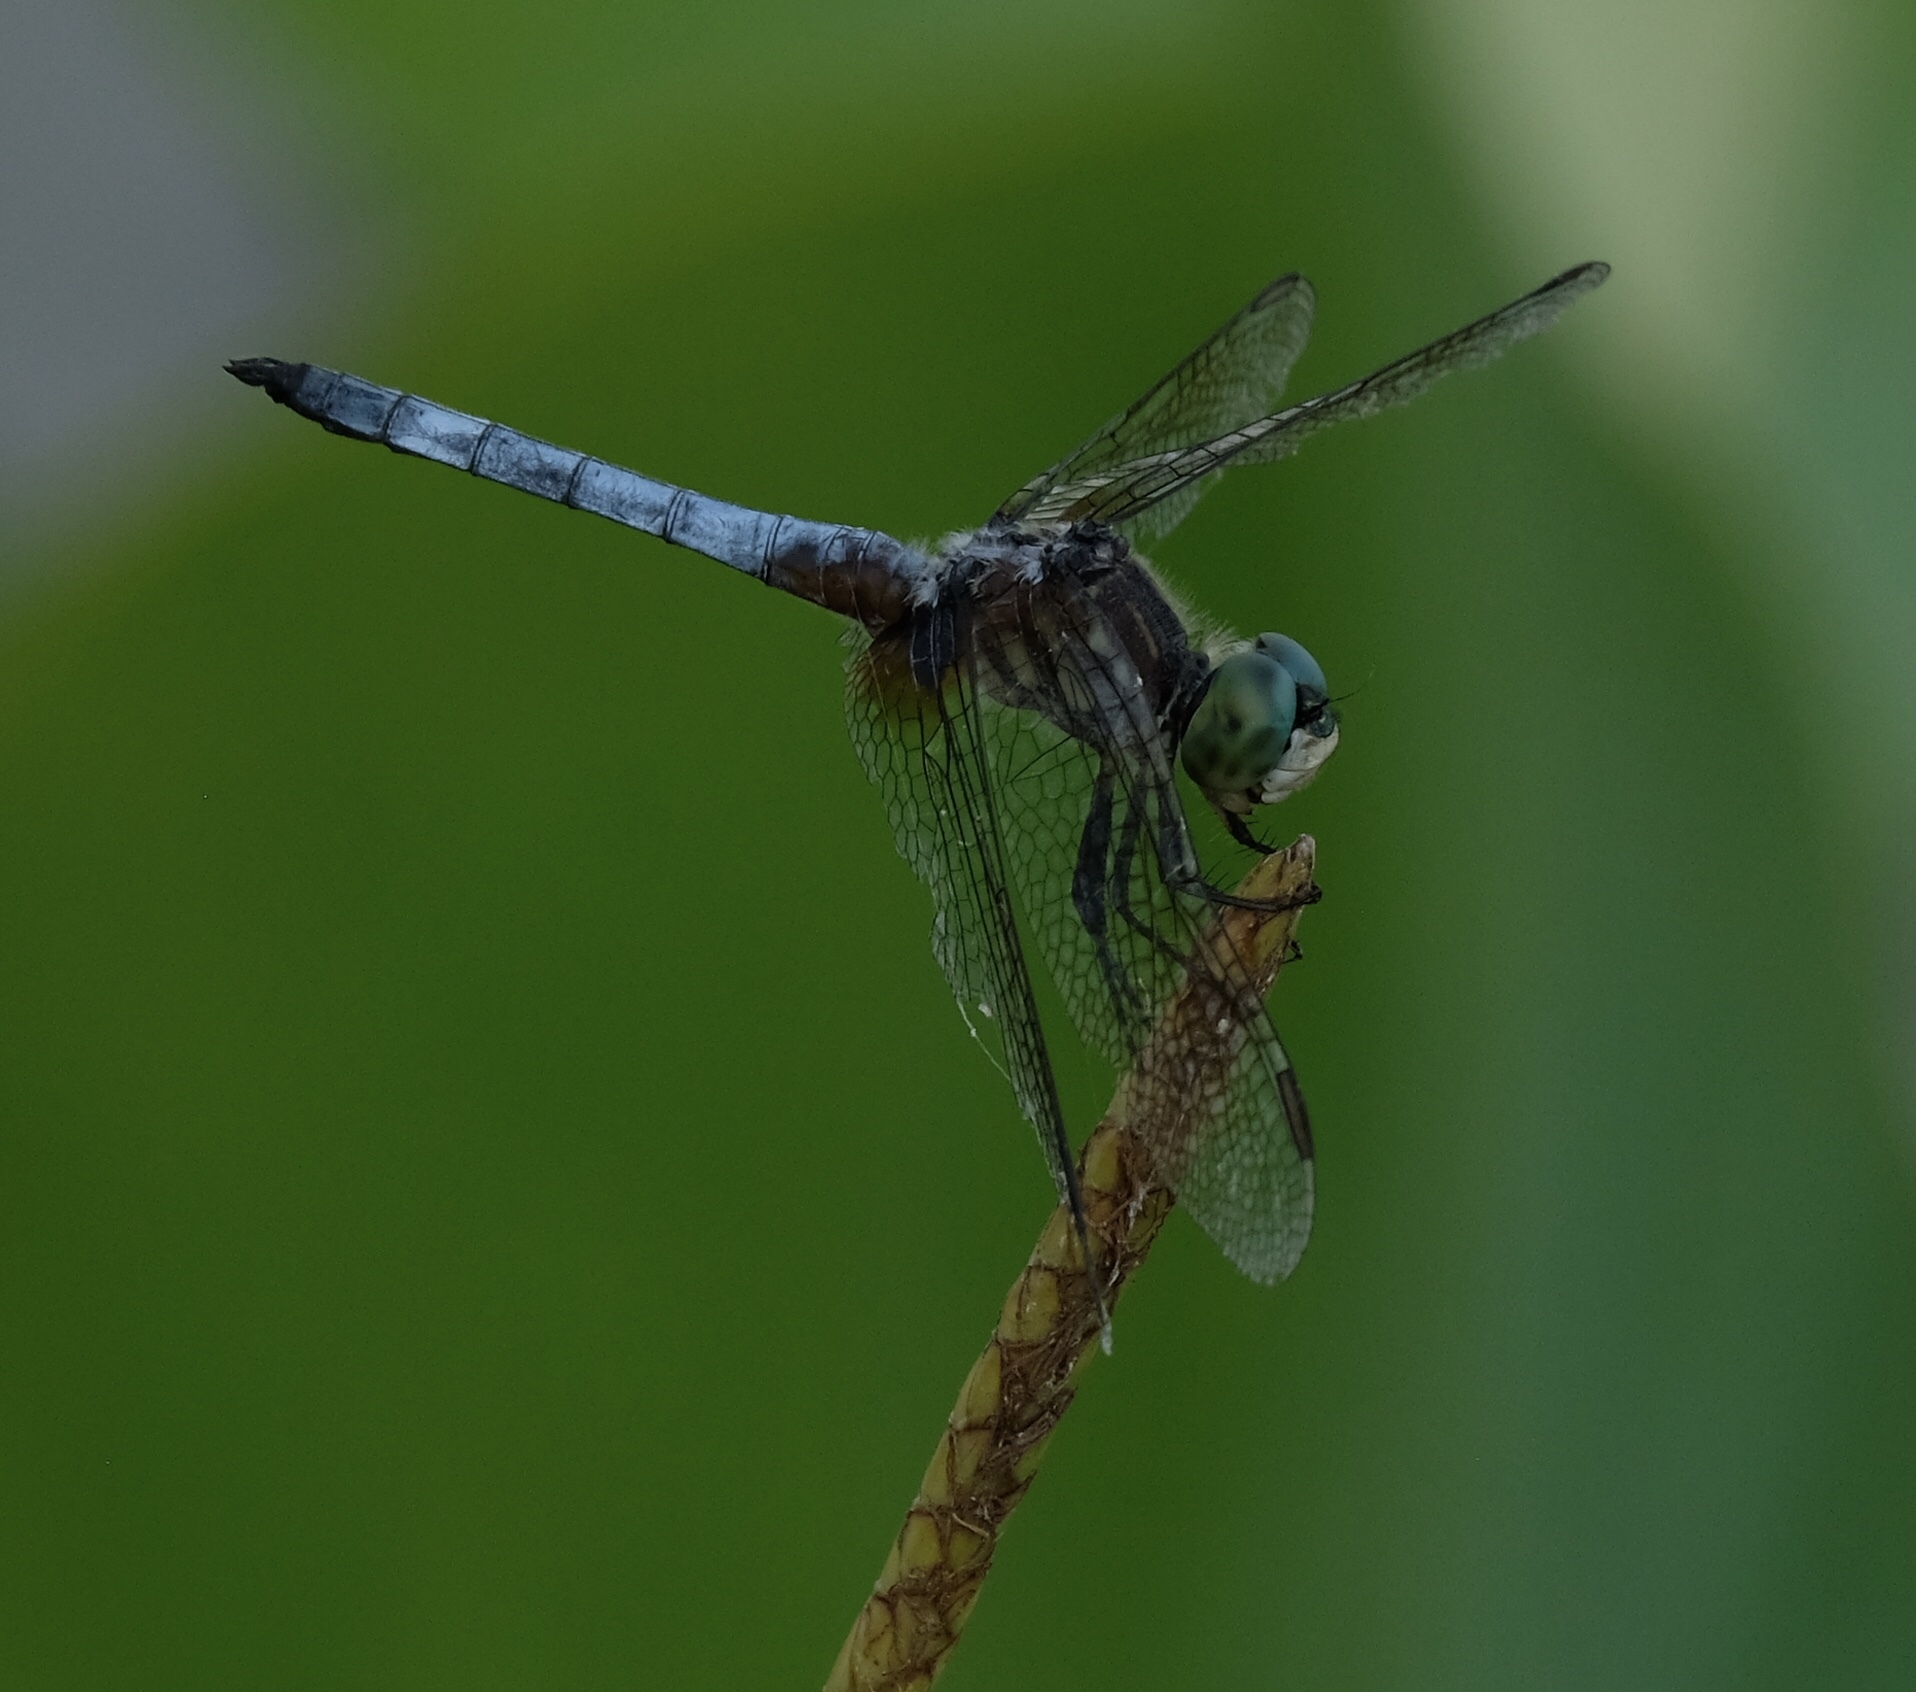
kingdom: Animalia
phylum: Arthropoda
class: Insecta
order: Odonata
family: Libellulidae
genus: Pachydiplax
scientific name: Pachydiplax longipennis
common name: Blue dasher
